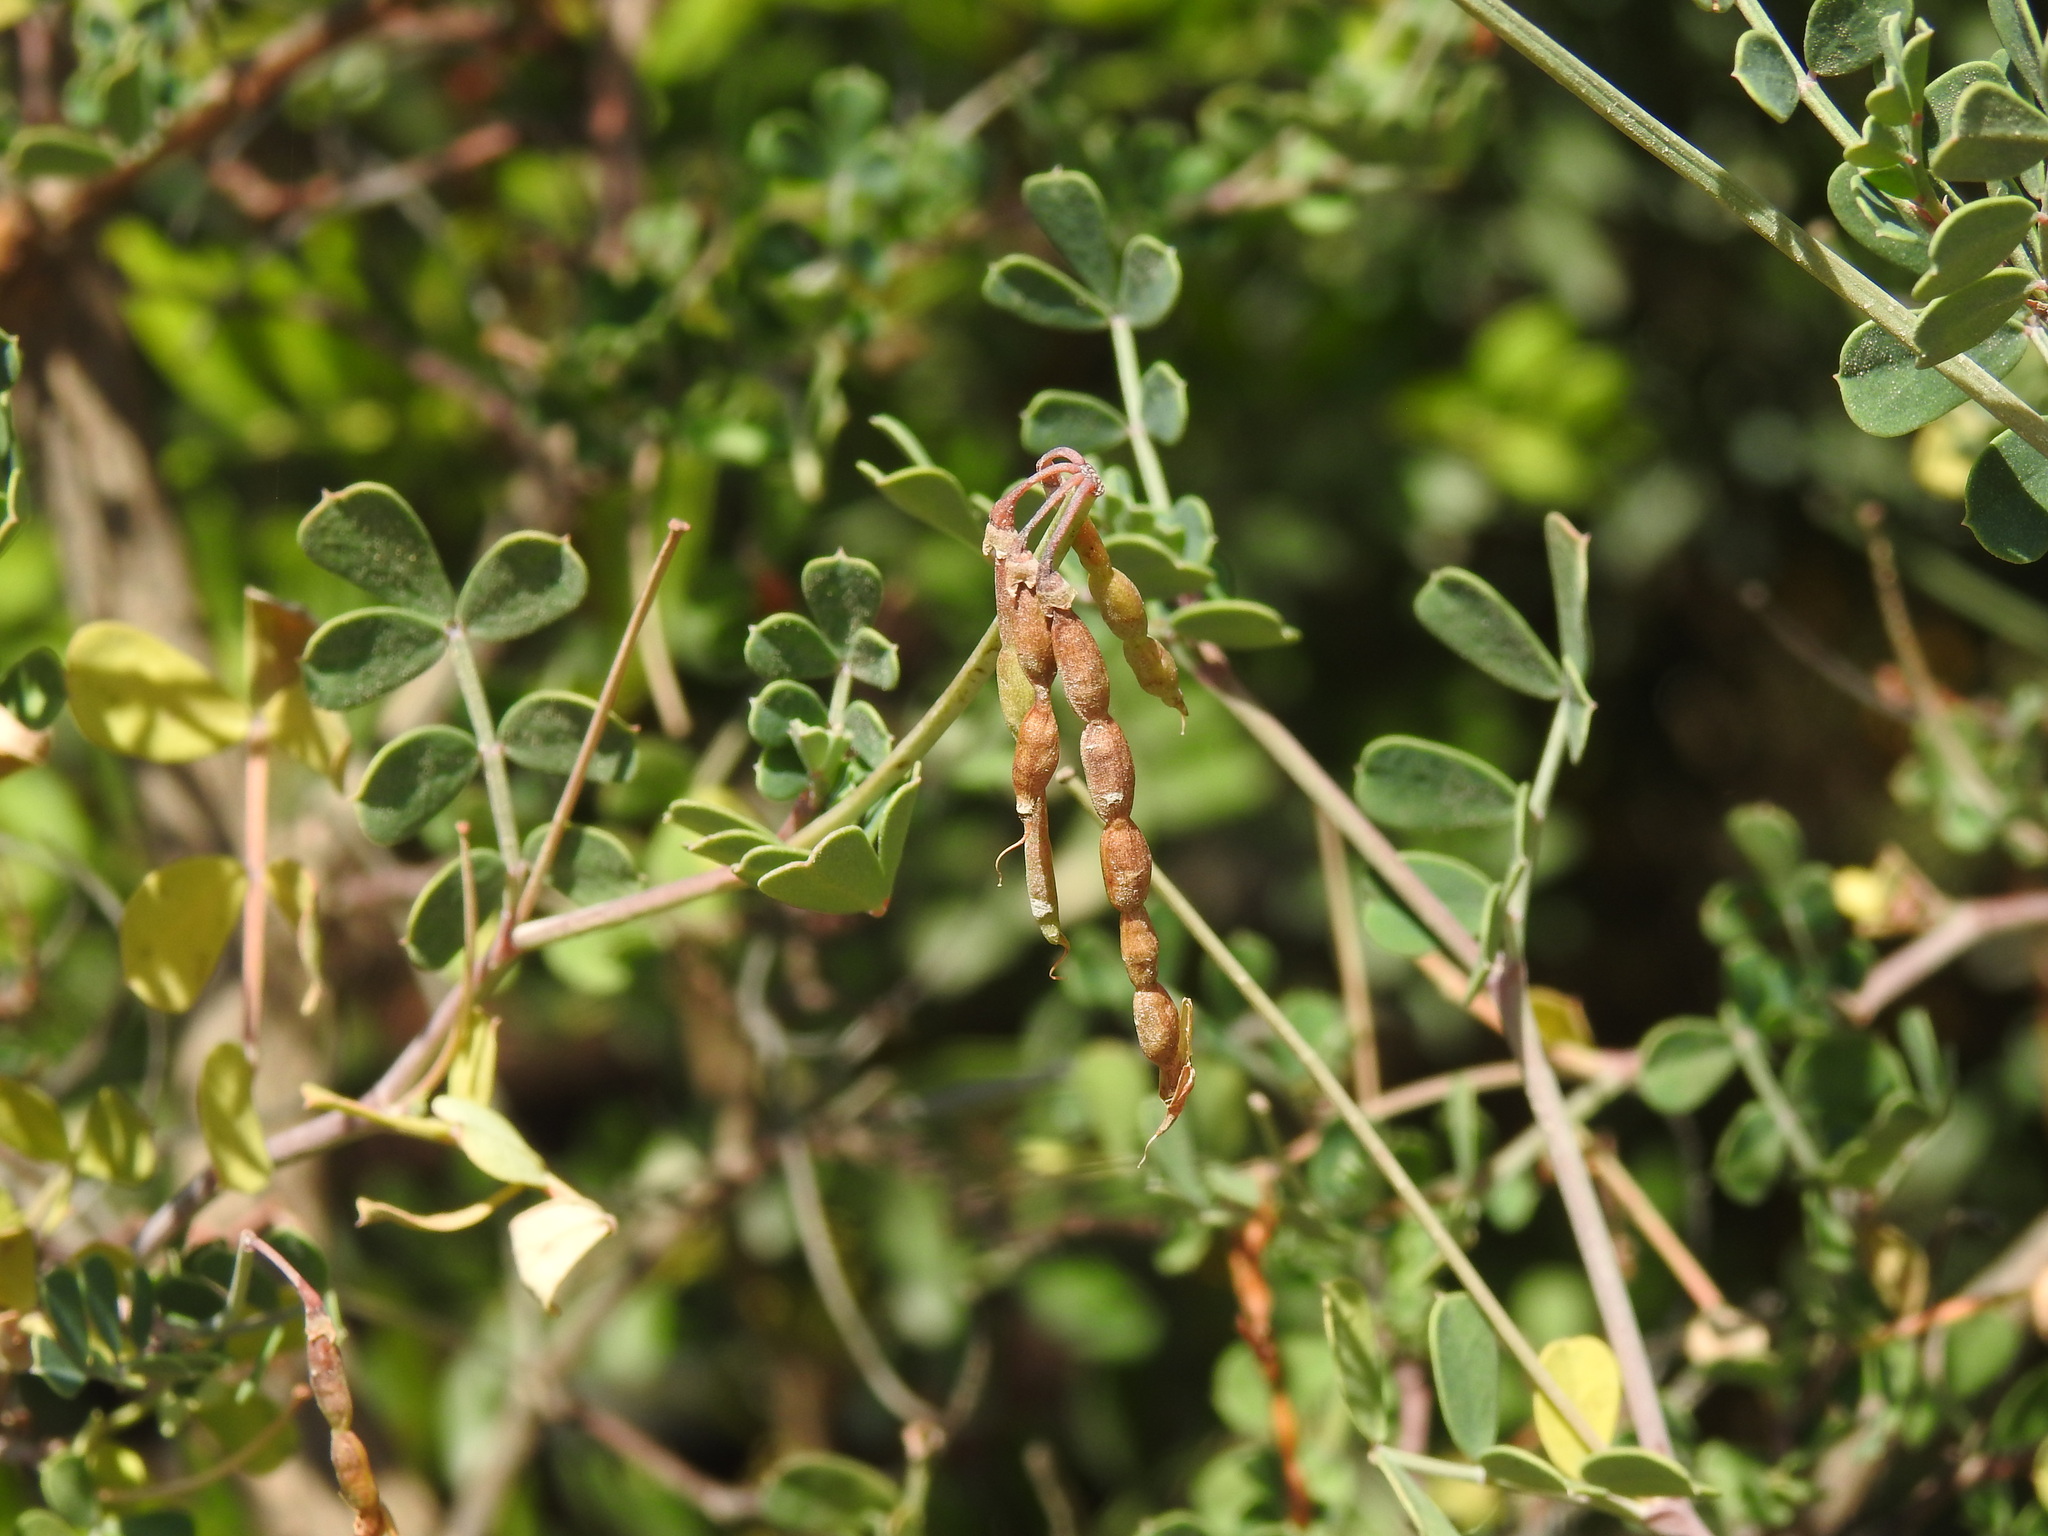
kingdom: Plantae
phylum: Tracheophyta
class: Magnoliopsida
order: Fabales
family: Fabaceae
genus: Coronilla
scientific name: Coronilla valentina
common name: Shrubby scorpion-vetch
